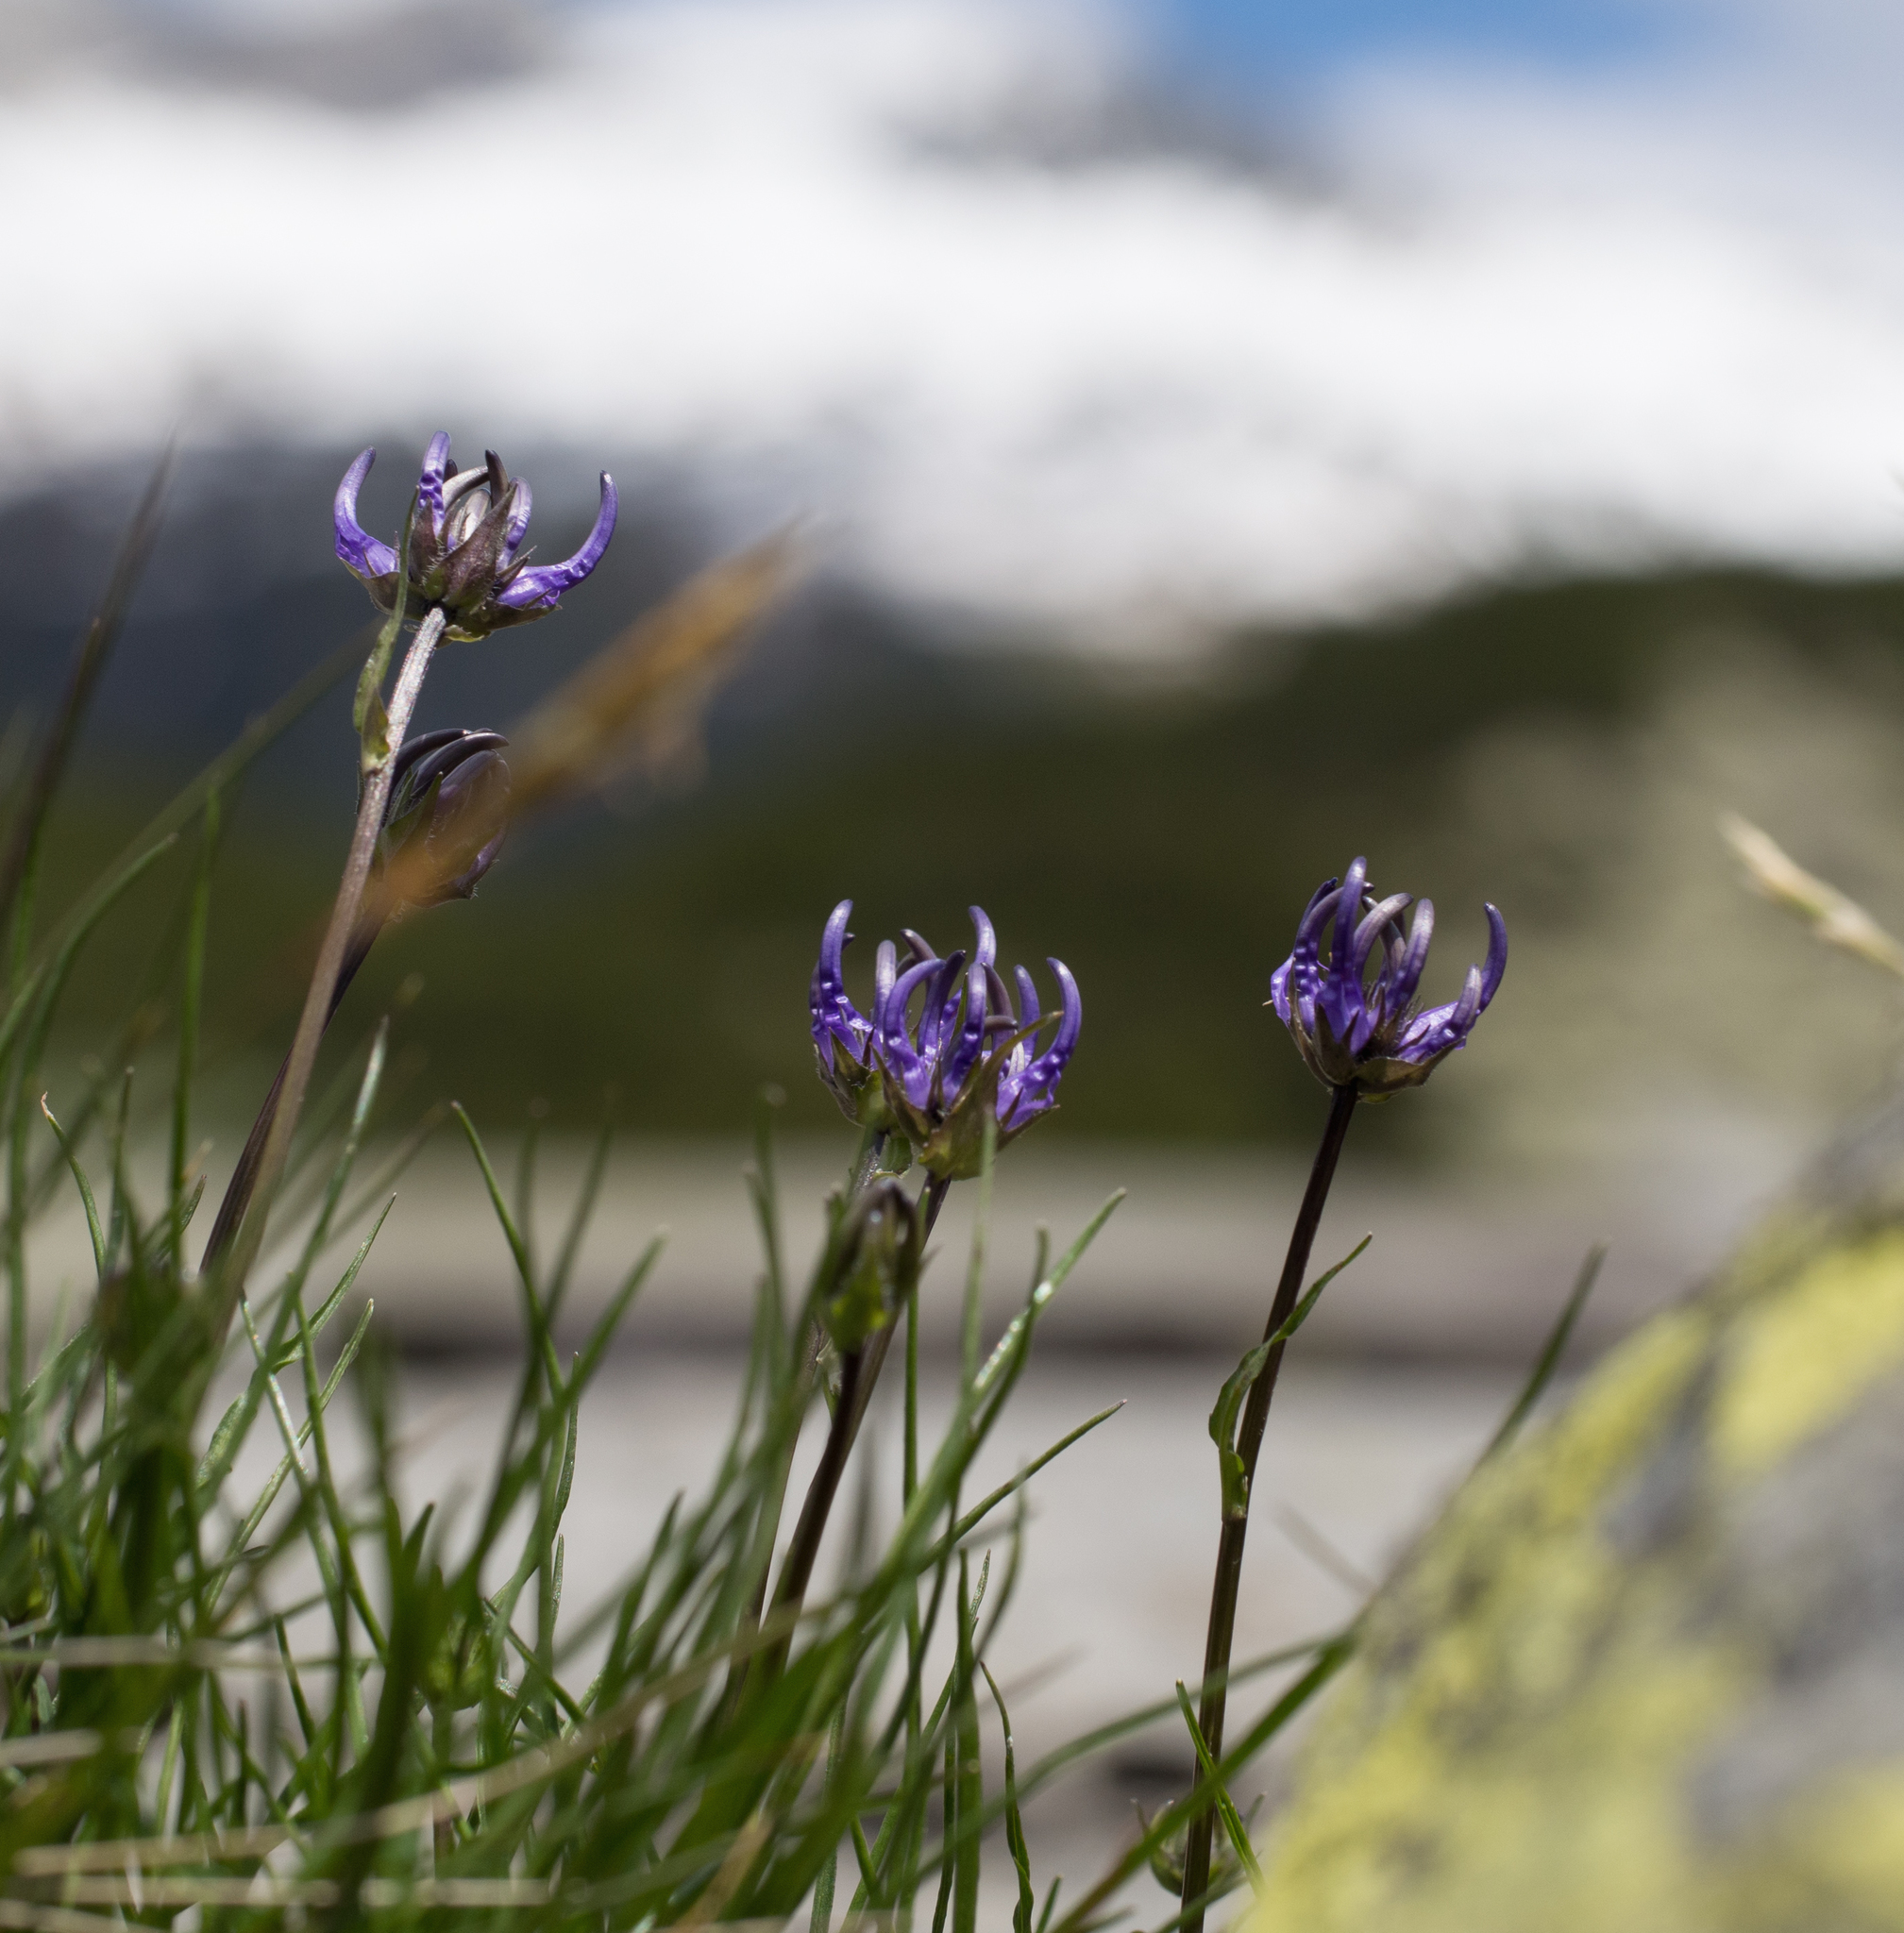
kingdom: Plantae
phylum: Tracheophyta
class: Magnoliopsida
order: Asterales
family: Campanulaceae
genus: Phyteuma
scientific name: Phyteuma hemisphaericum
